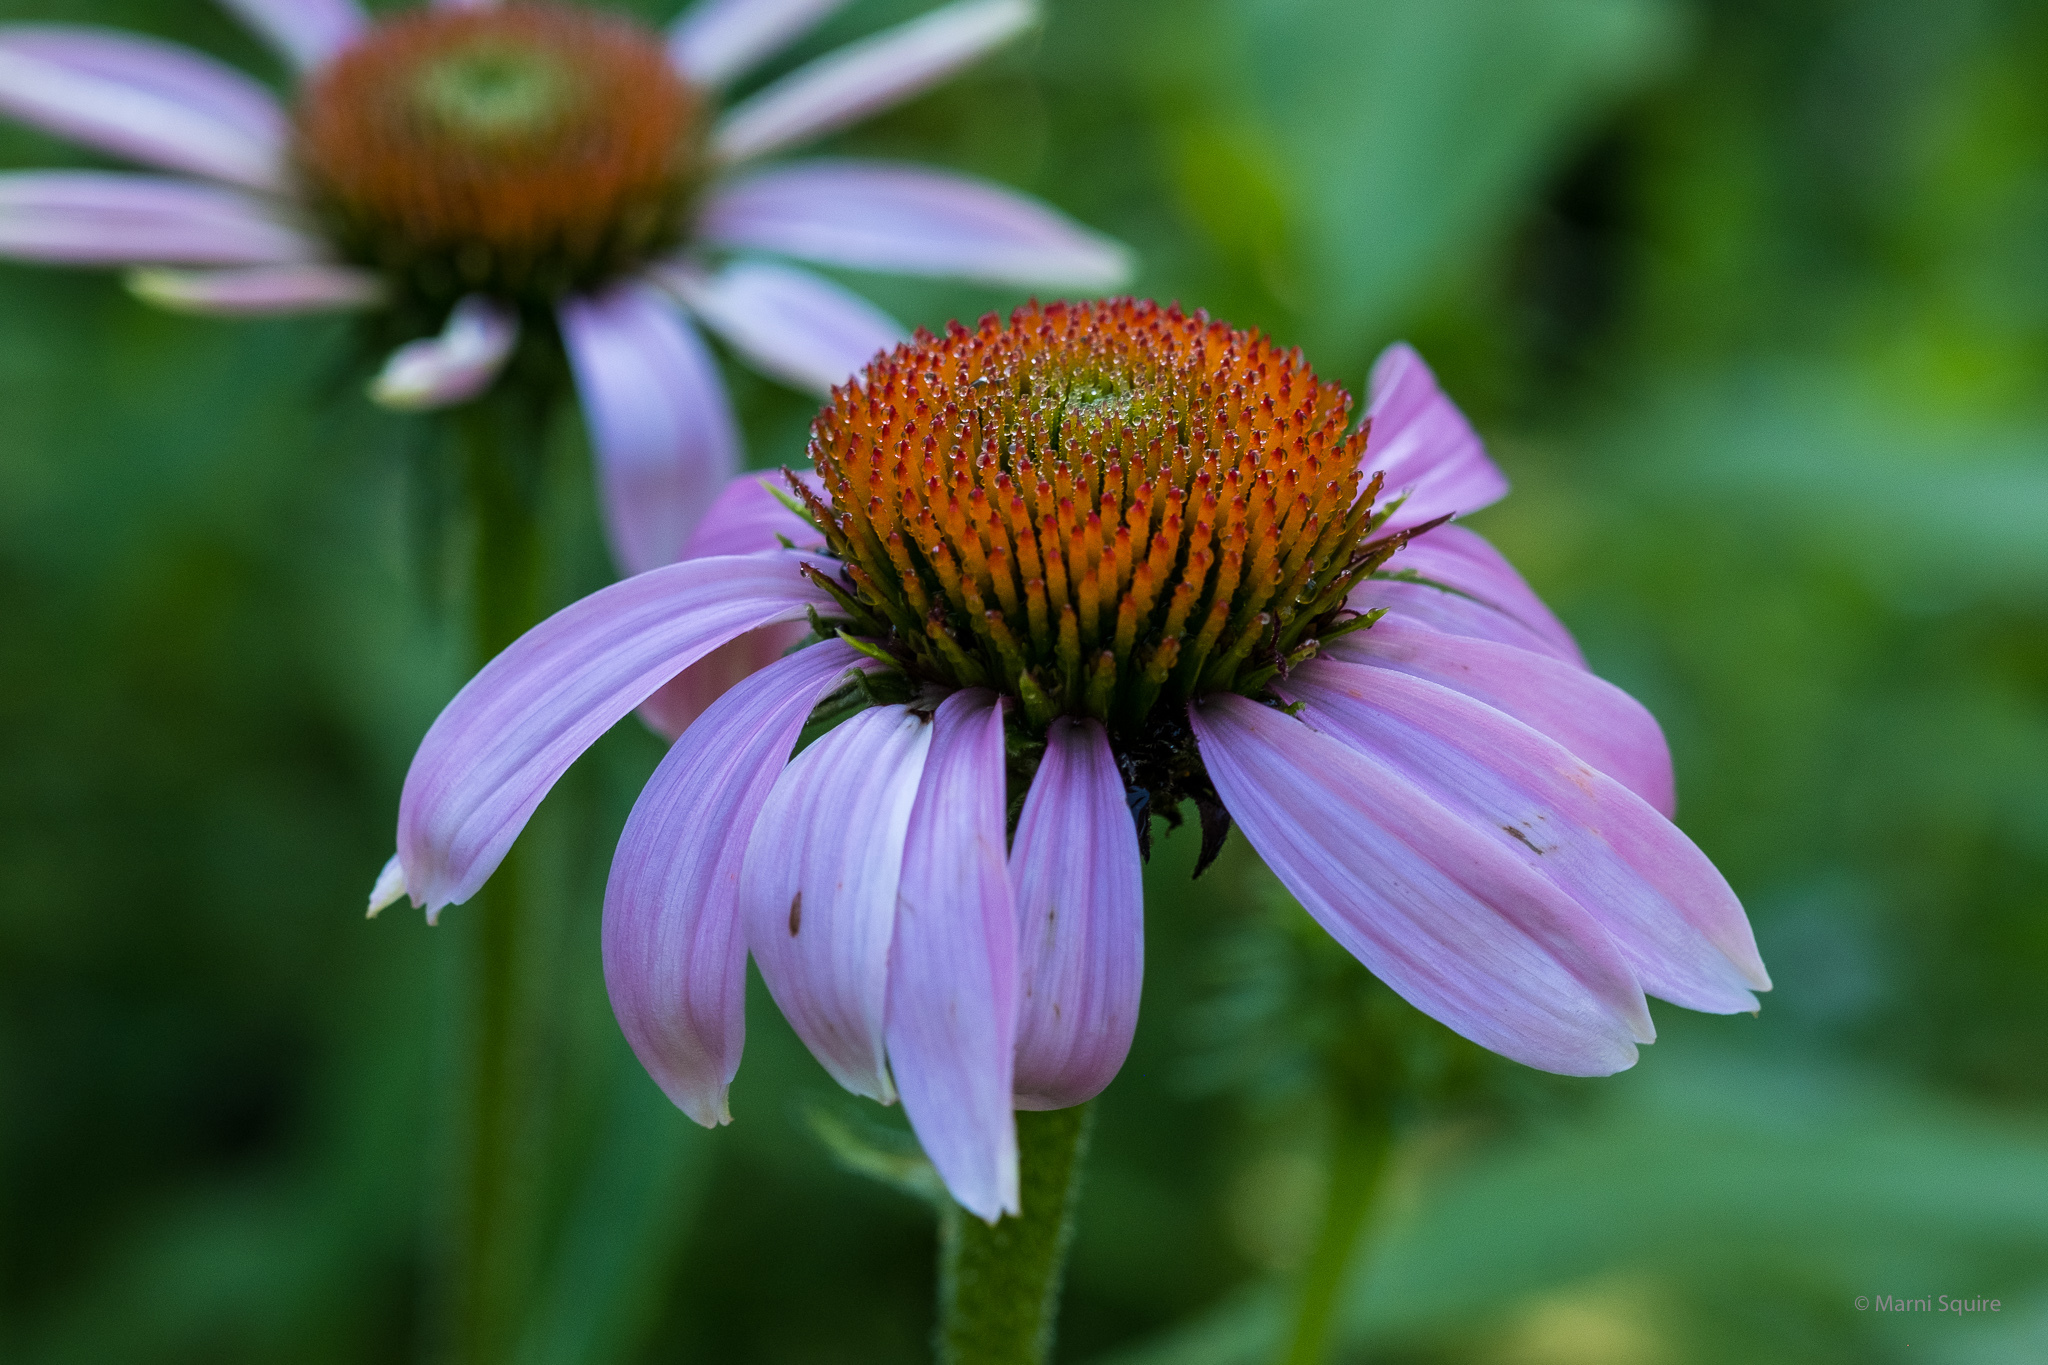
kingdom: Plantae
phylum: Tracheophyta
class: Magnoliopsida
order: Asterales
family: Asteraceae
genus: Echinacea
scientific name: Echinacea purpurea
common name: Broad-leaved purple coneflower
